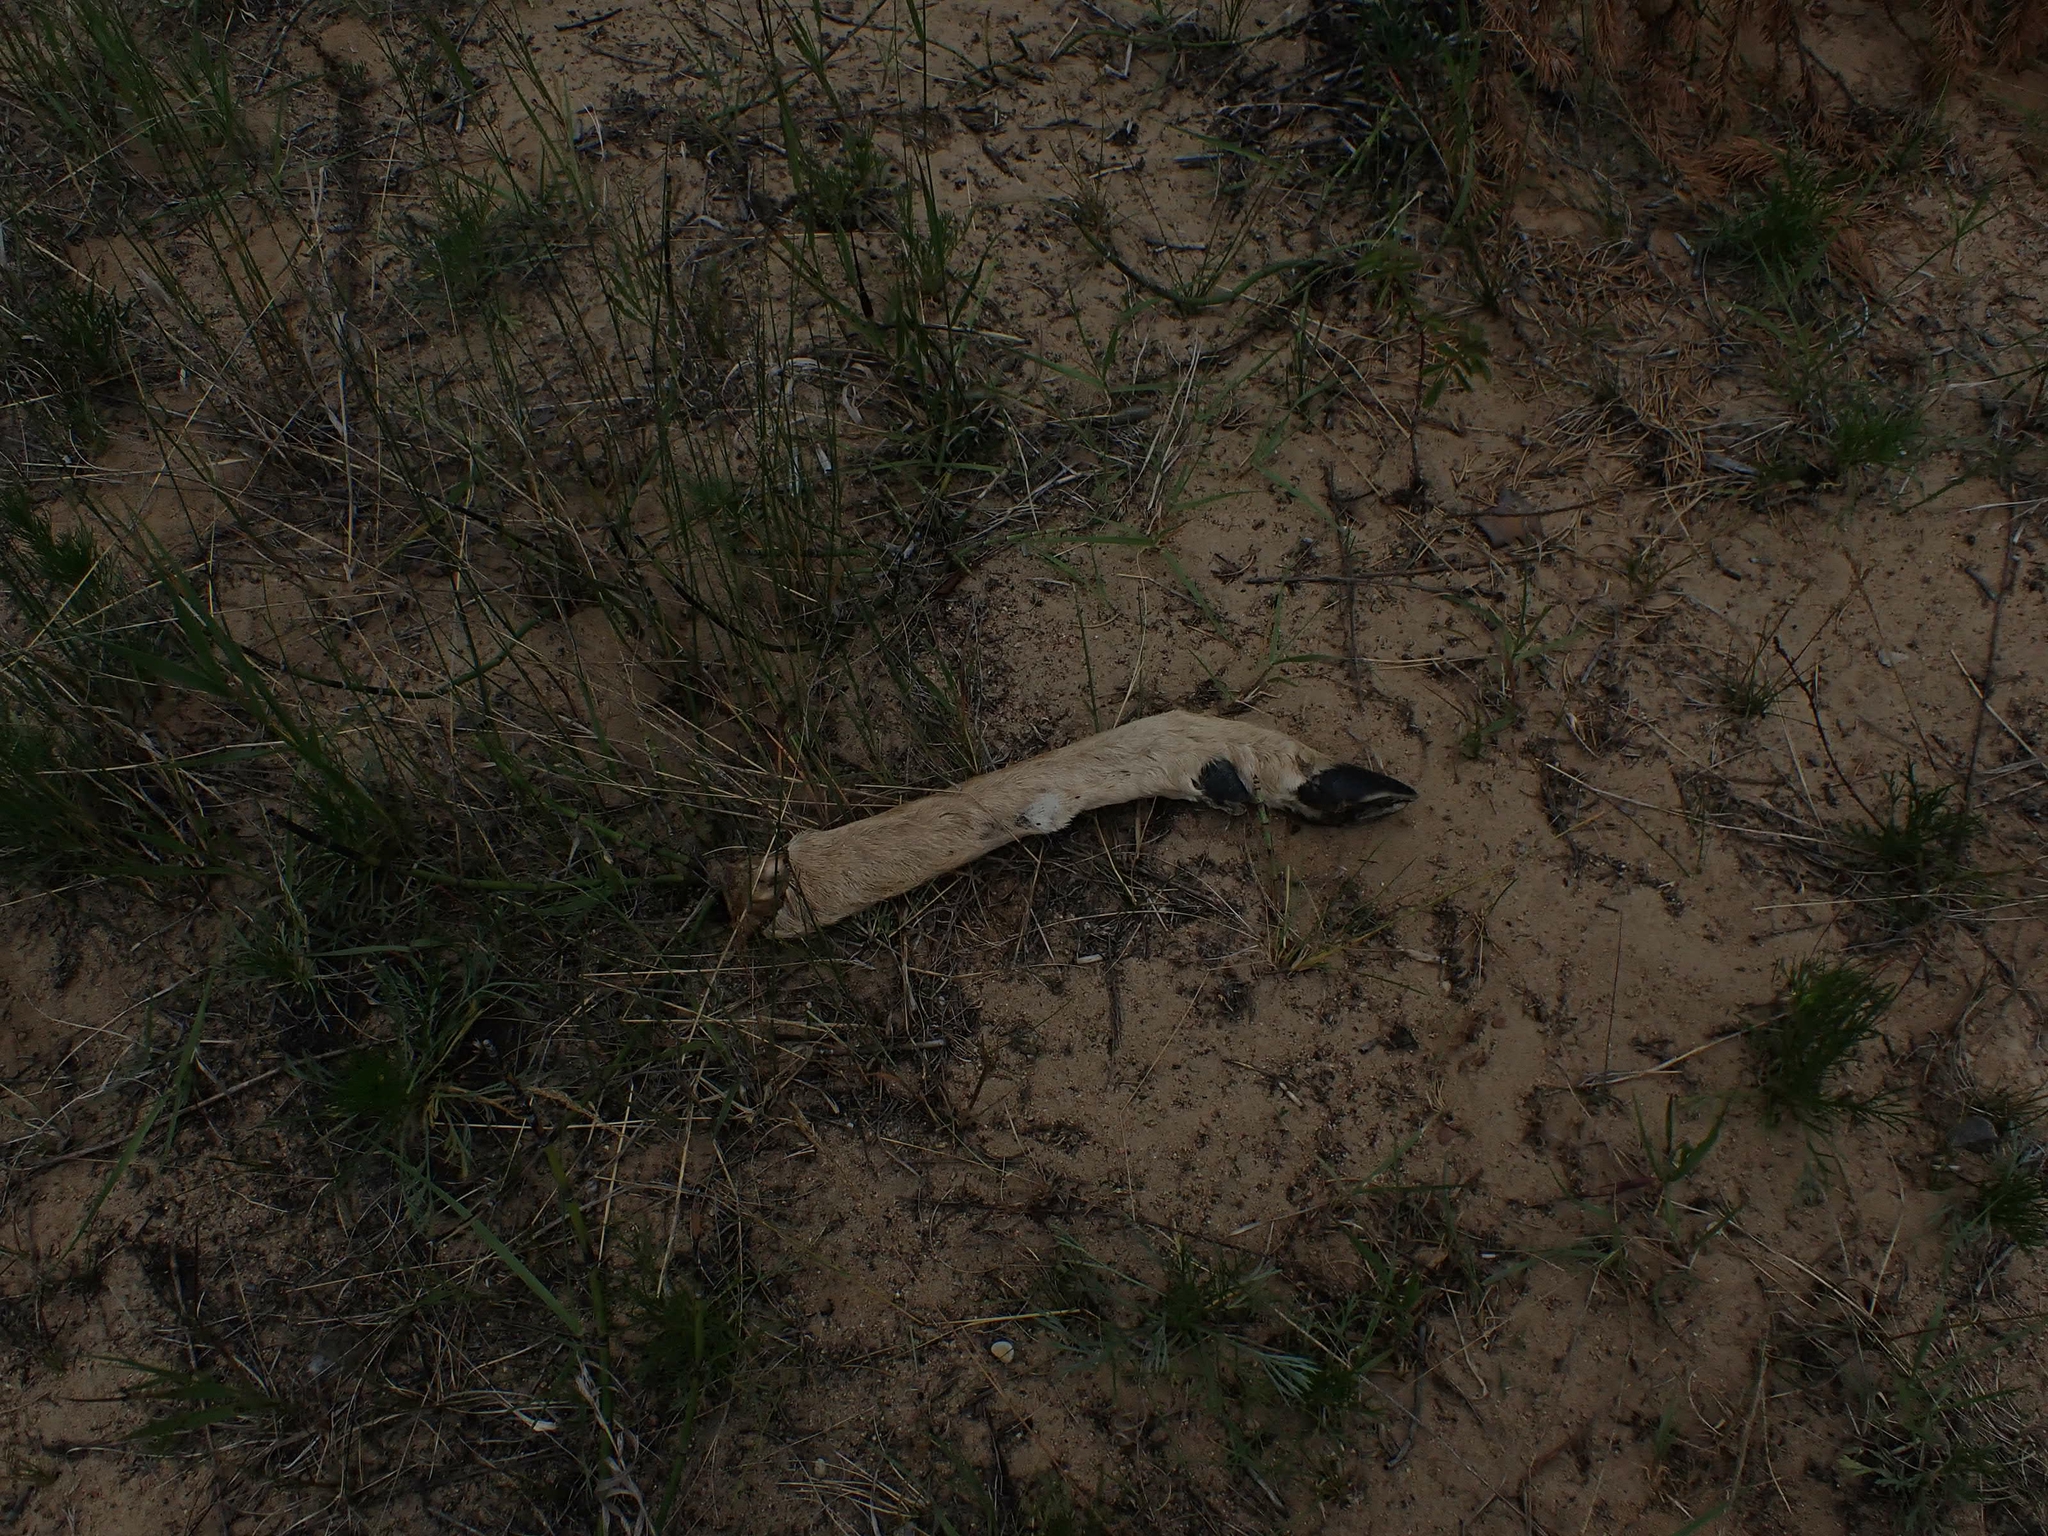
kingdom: Animalia
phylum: Chordata
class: Mammalia
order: Artiodactyla
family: Cervidae
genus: Odocoileus
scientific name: Odocoileus virginianus
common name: White-tailed deer
